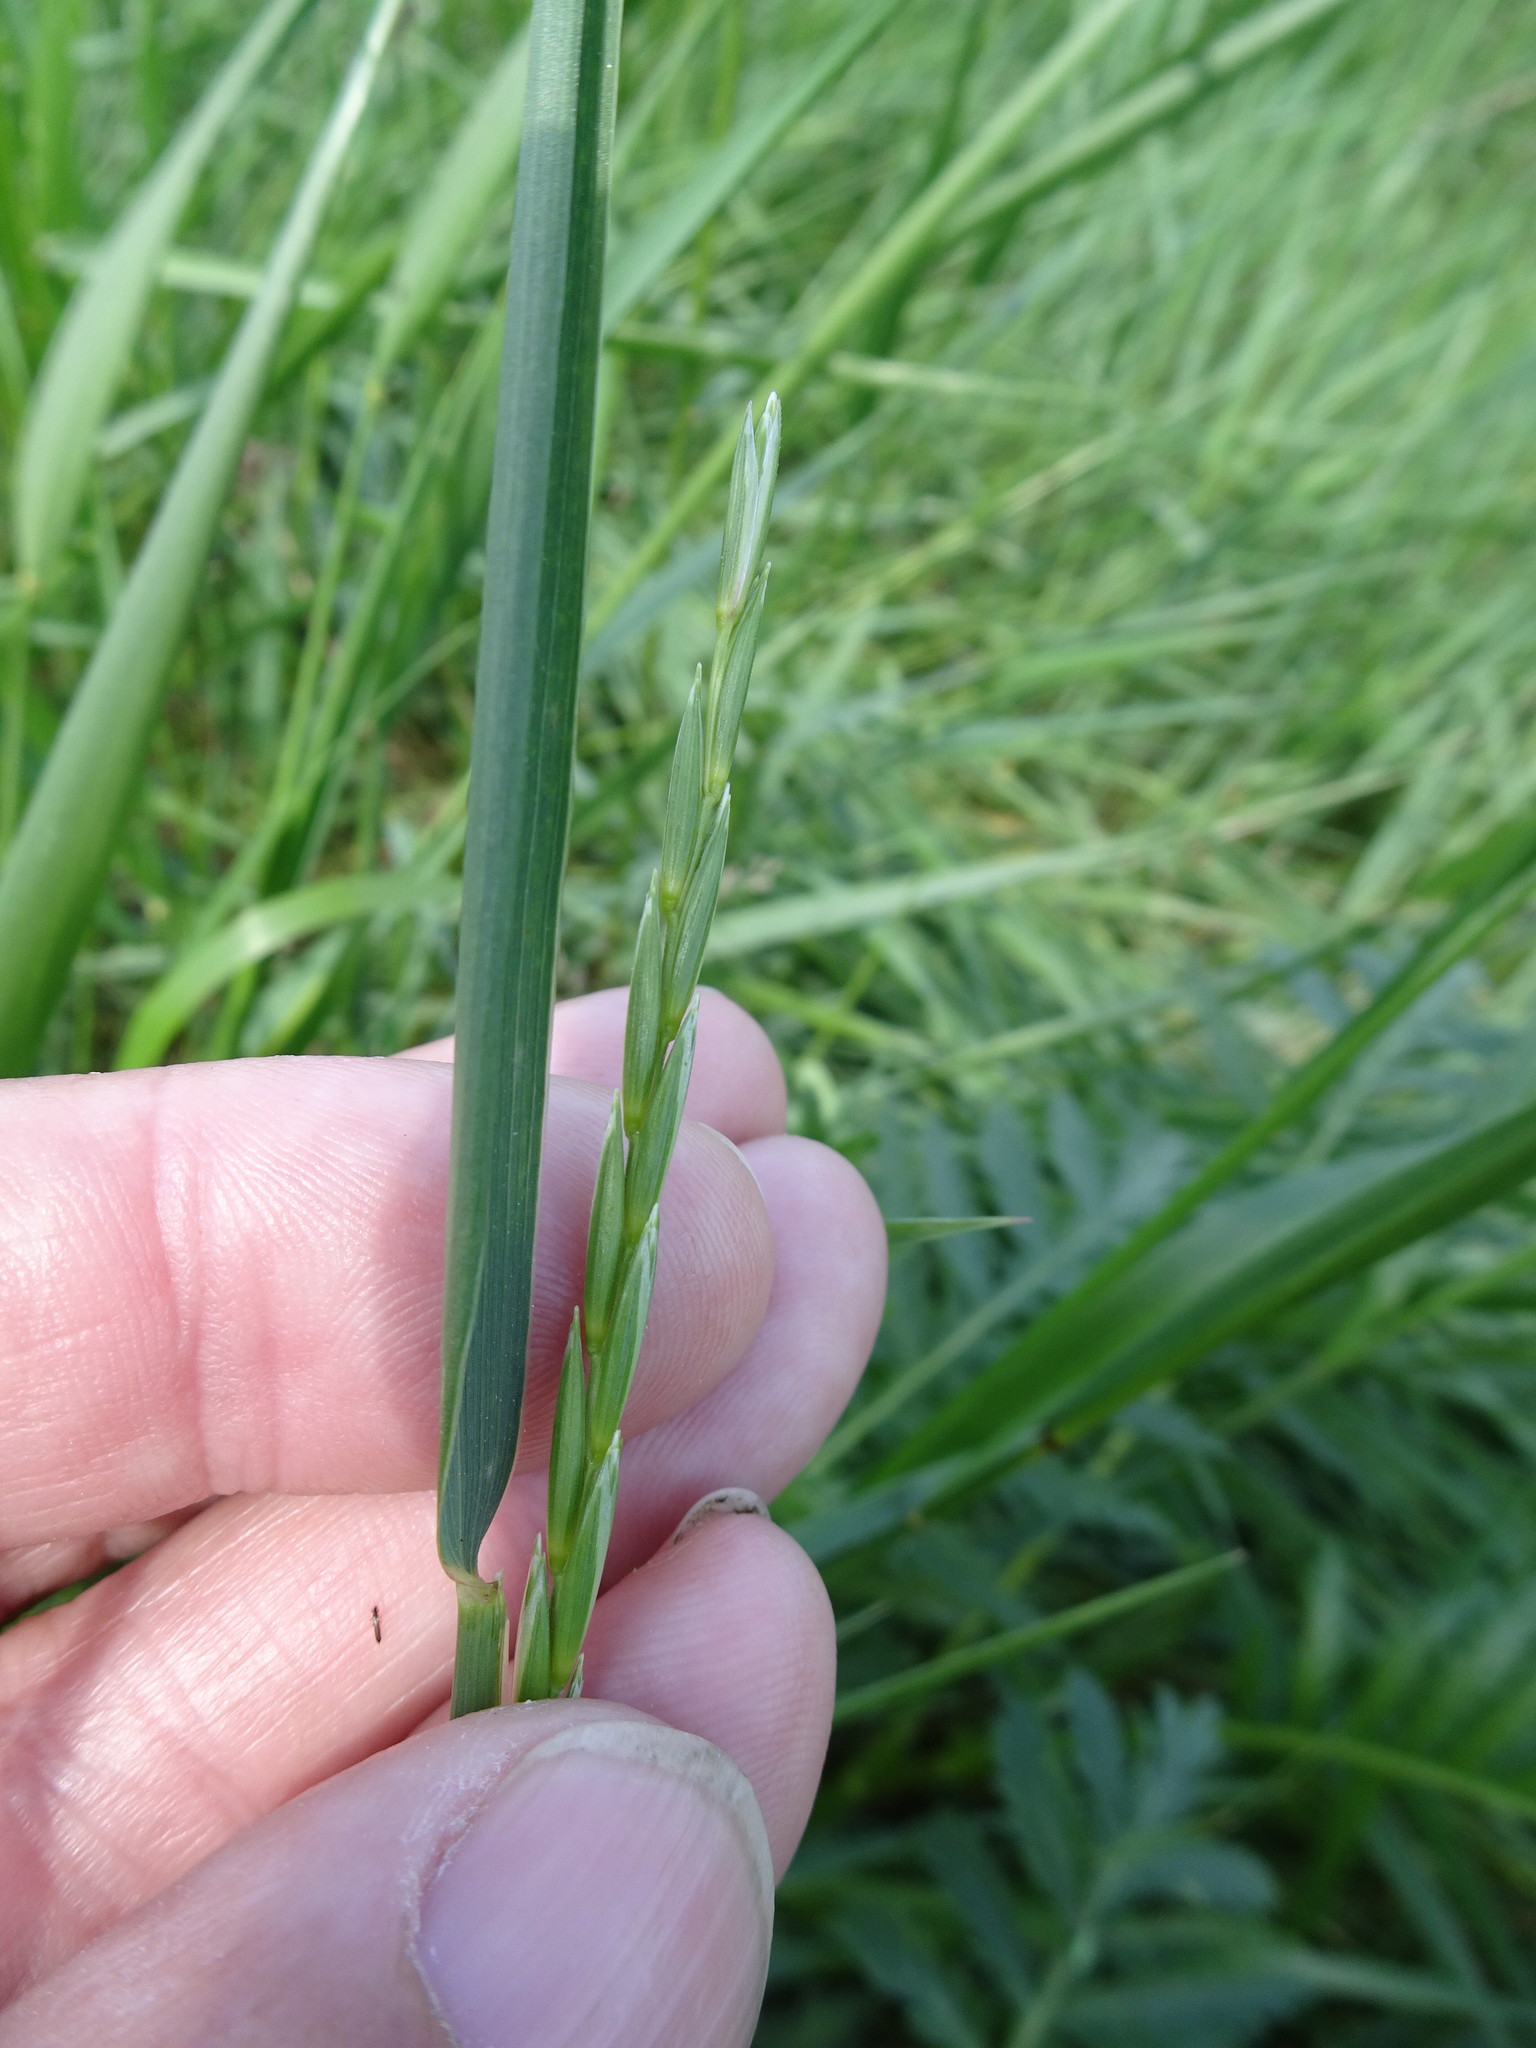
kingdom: Plantae
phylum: Tracheophyta
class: Liliopsida
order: Poales
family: Poaceae
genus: Elymus
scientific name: Elymus repens
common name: Quackgrass
